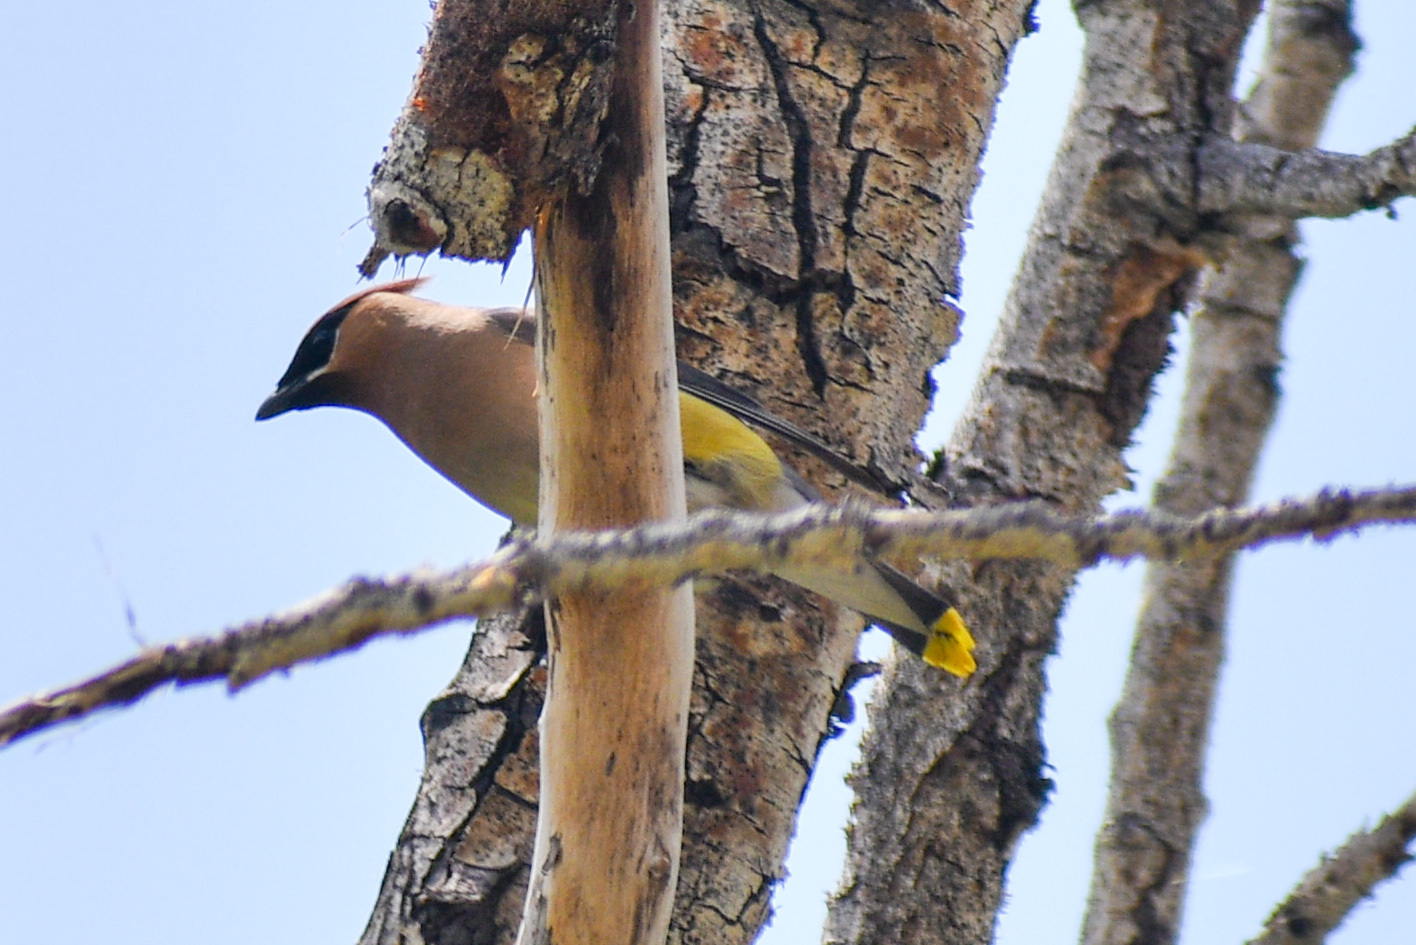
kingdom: Animalia
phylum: Chordata
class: Aves
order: Passeriformes
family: Bombycillidae
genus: Bombycilla
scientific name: Bombycilla cedrorum
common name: Cedar waxwing
